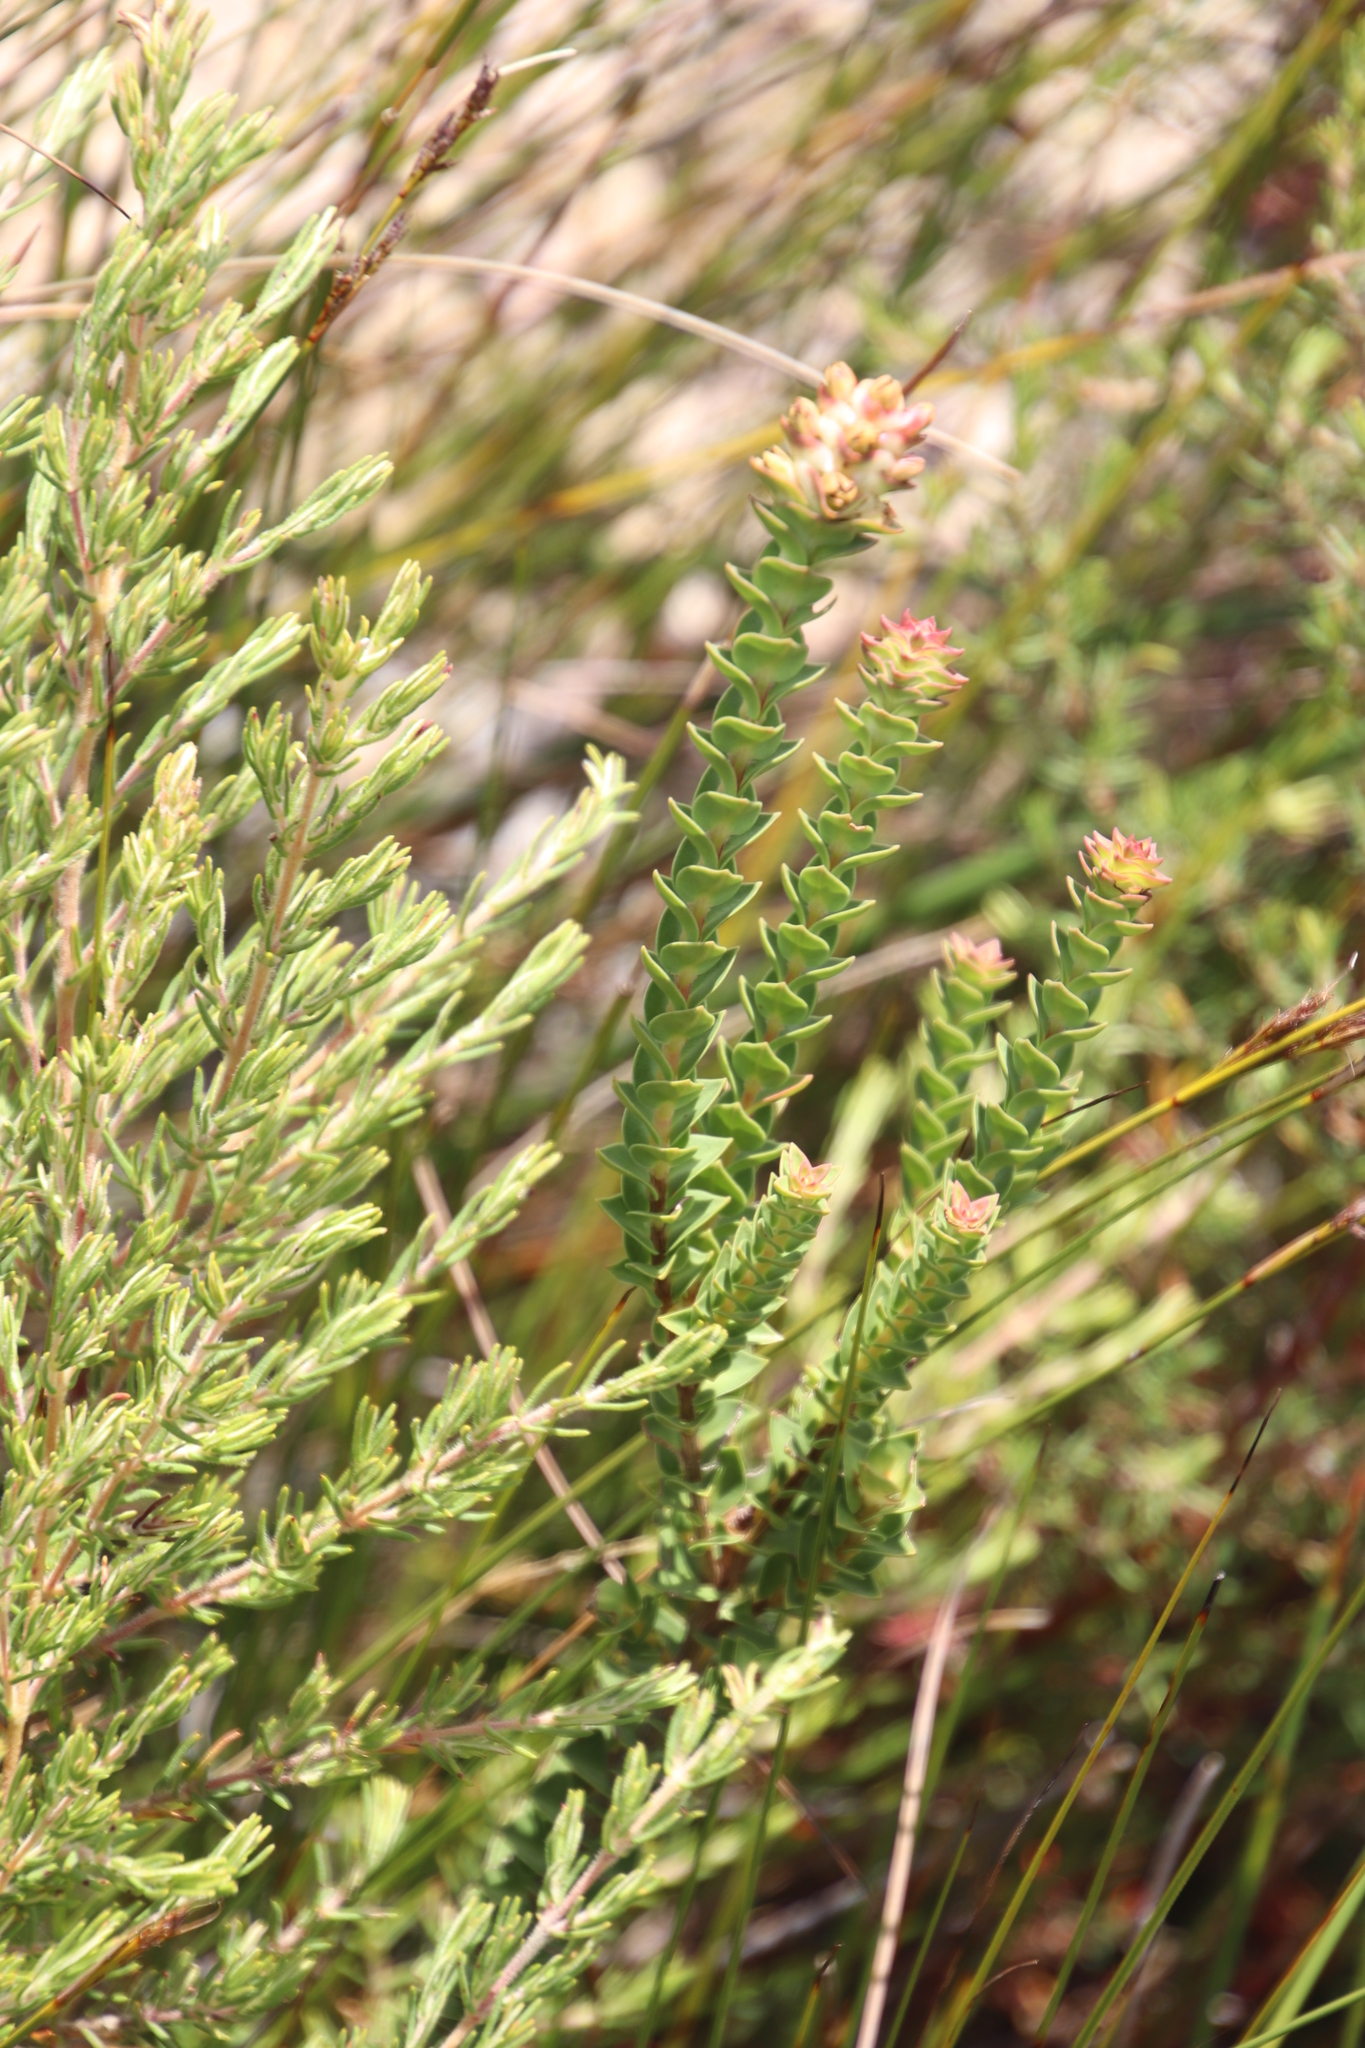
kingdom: Plantae
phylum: Tracheophyta
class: Magnoliopsida
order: Myrtales
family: Penaeaceae
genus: Penaea
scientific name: Penaea cneorum
